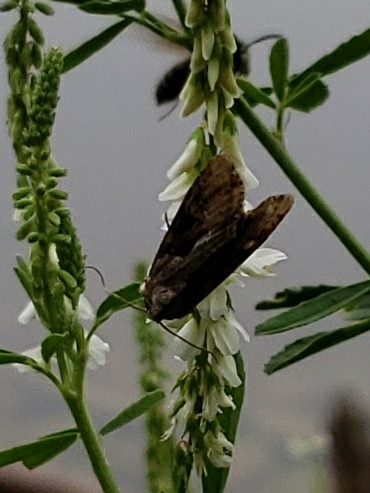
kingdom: Animalia
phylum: Arthropoda
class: Insecta
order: Lepidoptera
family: Noctuidae
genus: Lateroligia
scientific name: Lateroligia ophiogramma
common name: Double lobed
